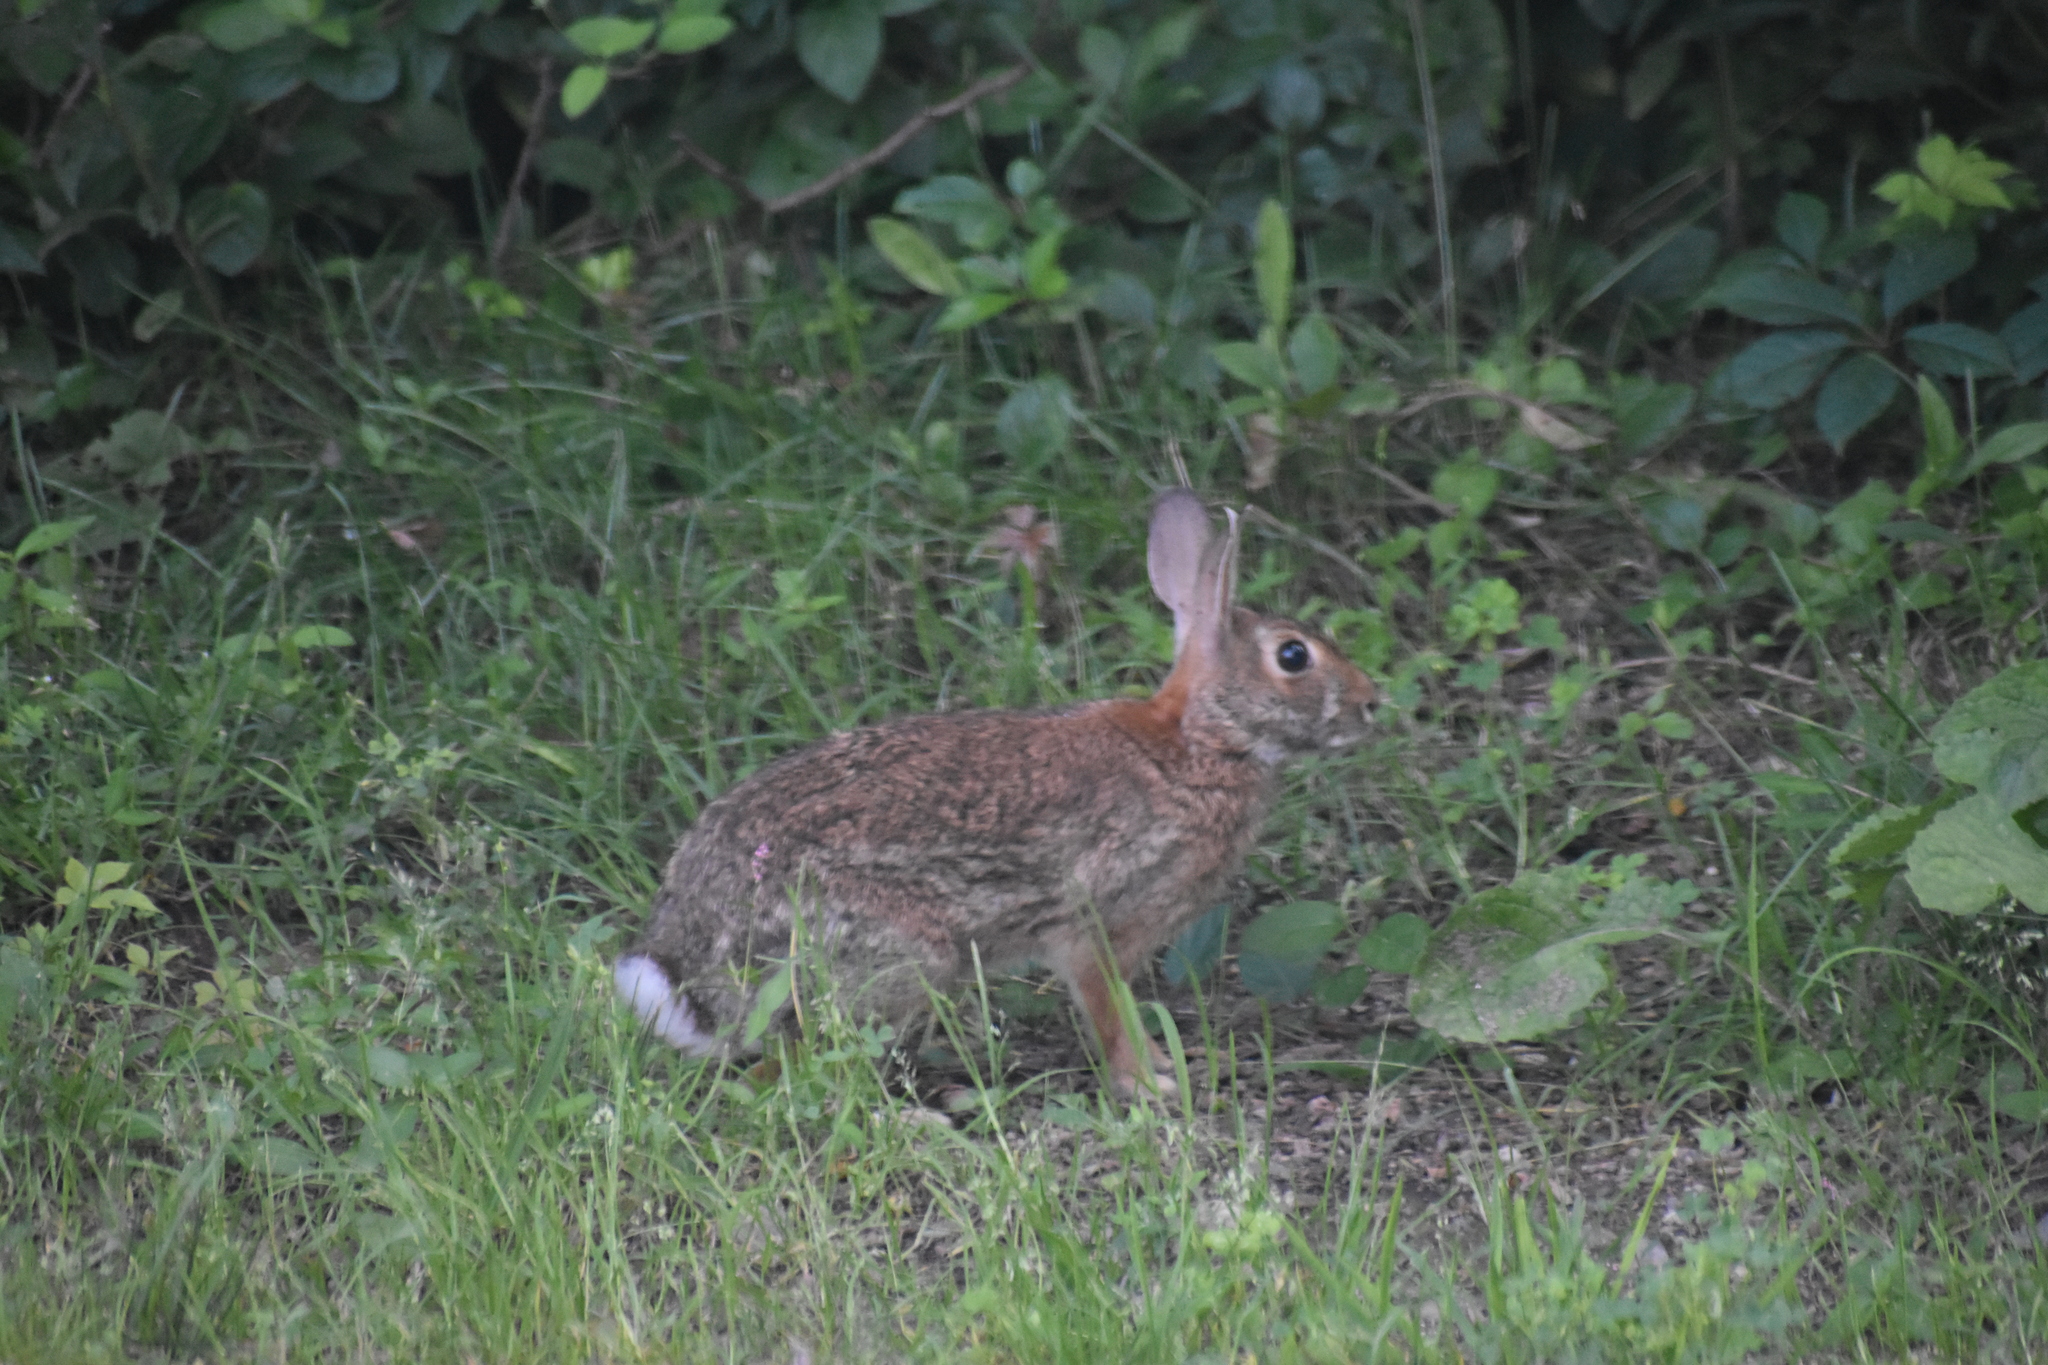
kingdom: Animalia
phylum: Chordata
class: Mammalia
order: Lagomorpha
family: Leporidae
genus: Sylvilagus
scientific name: Sylvilagus floridanus
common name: Eastern cottontail
